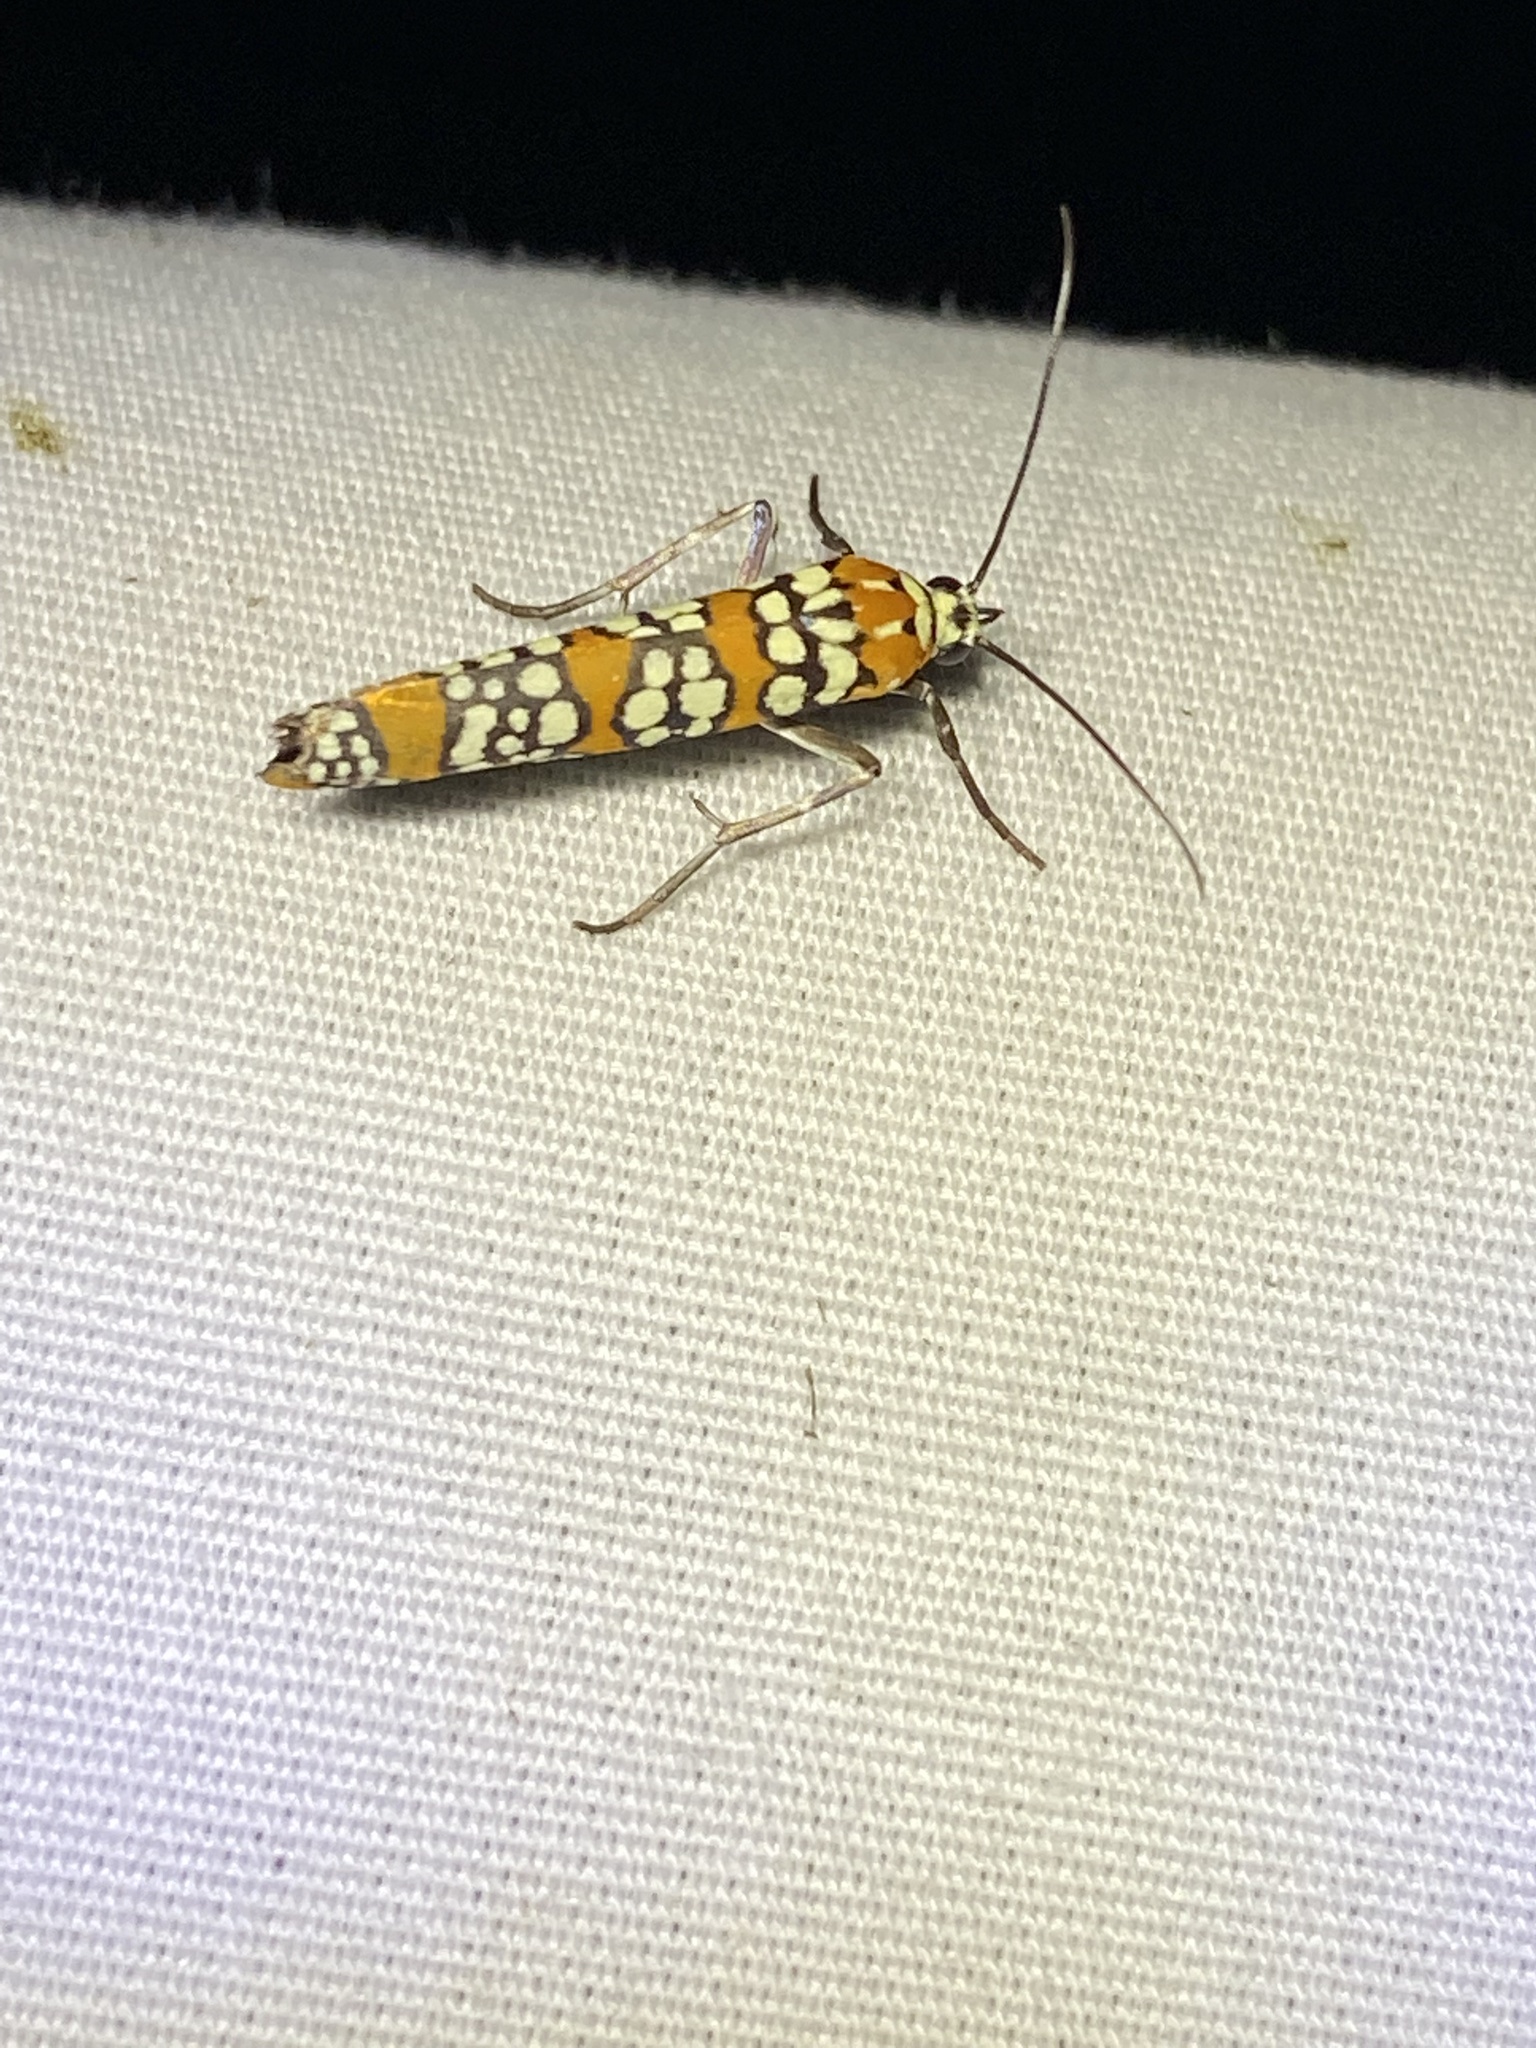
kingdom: Animalia
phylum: Arthropoda
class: Insecta
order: Lepidoptera
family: Attevidae
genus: Atteva
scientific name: Atteva punctella
